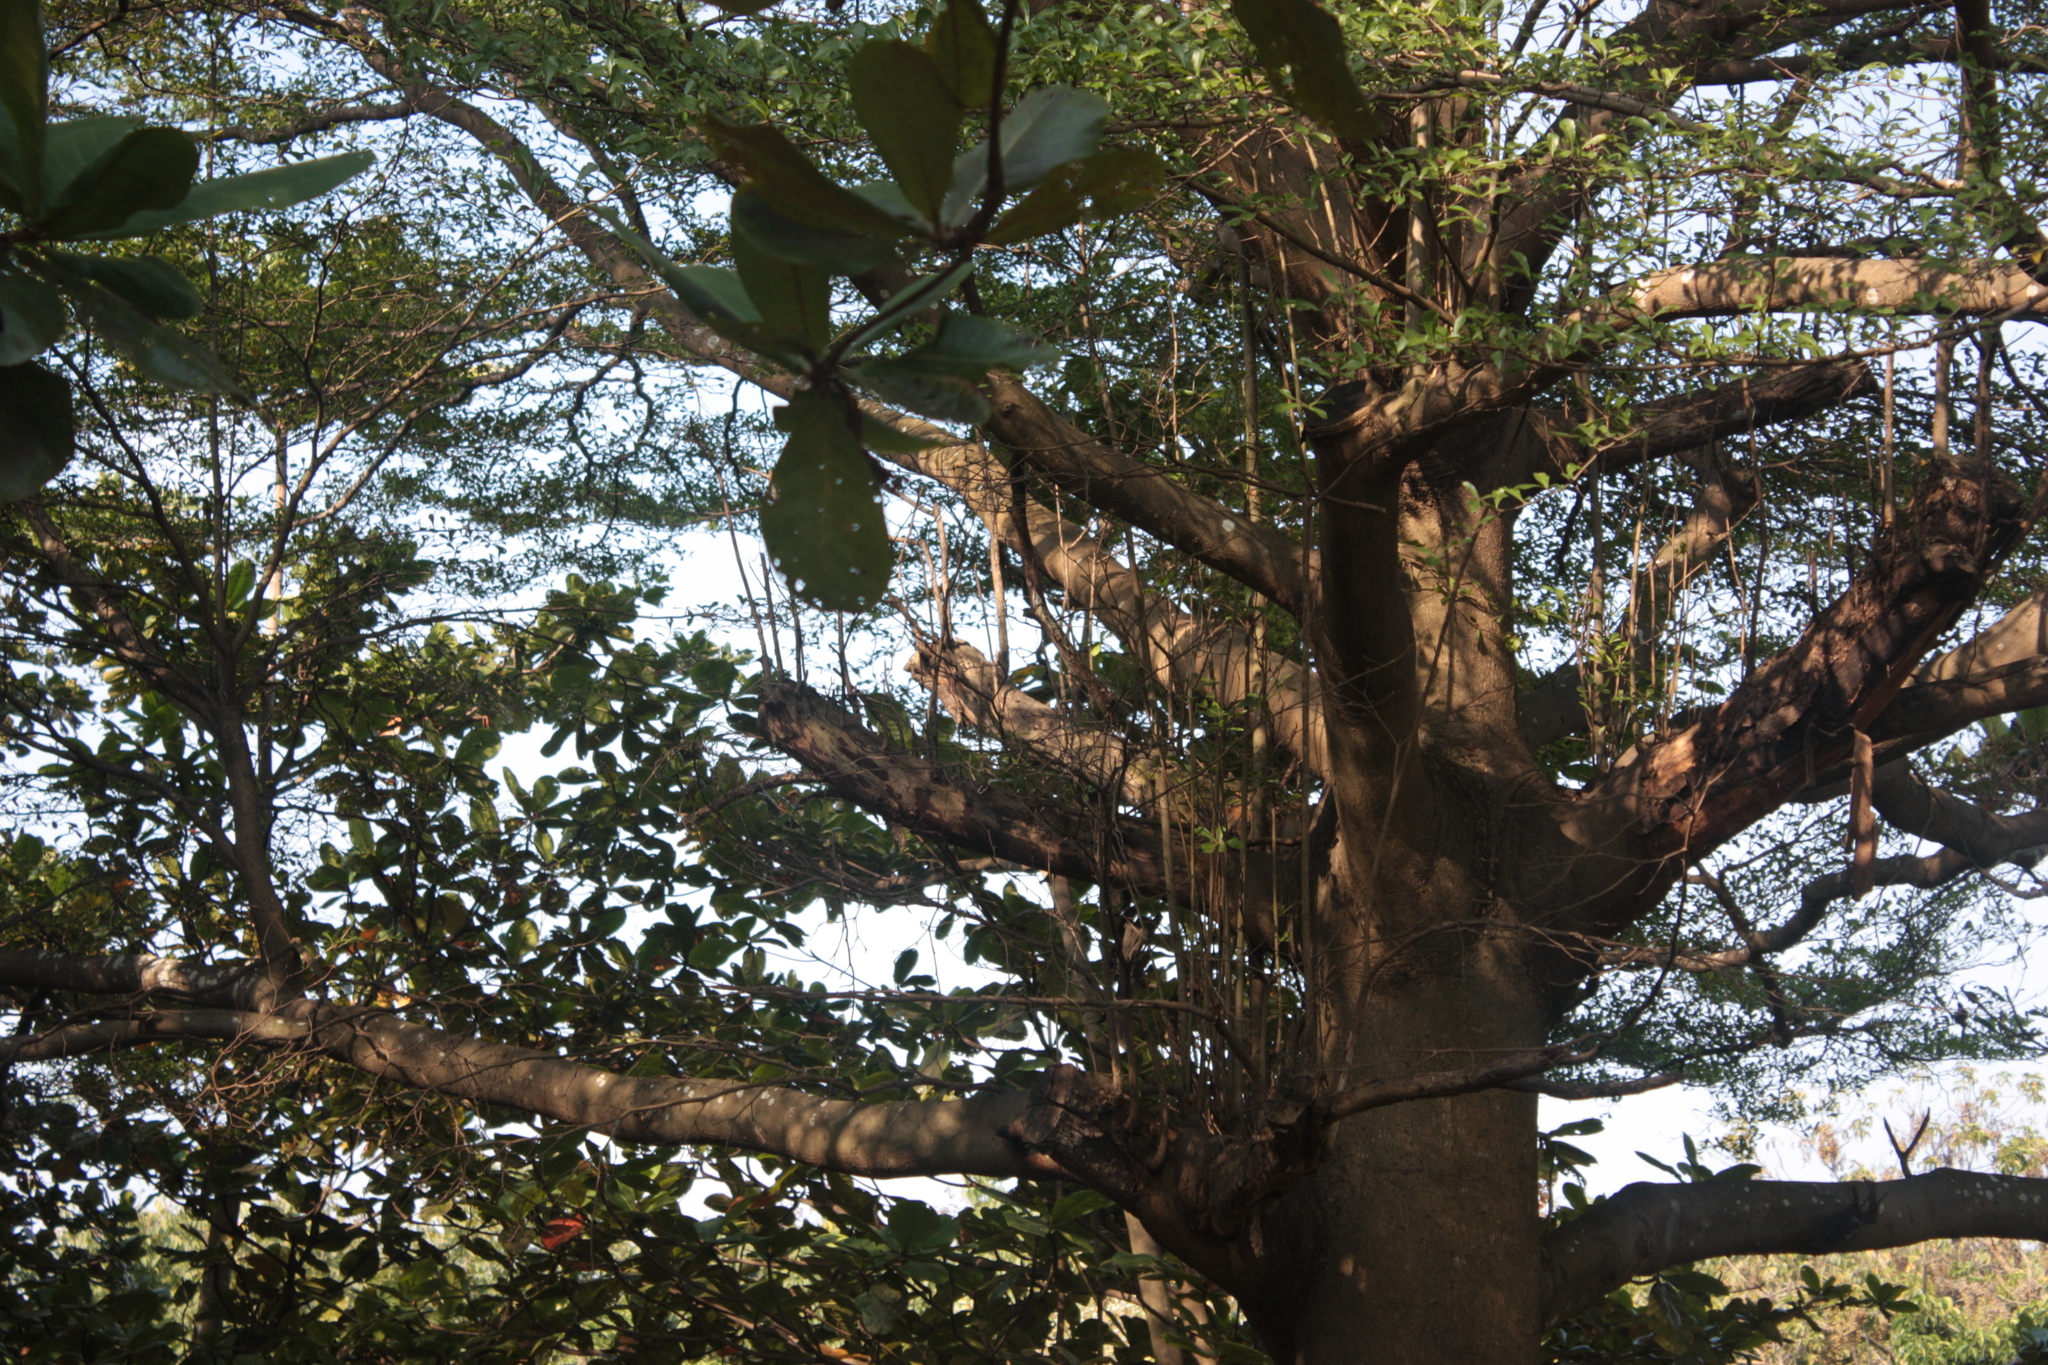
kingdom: Animalia
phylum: Chordata
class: Aves
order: Passeriformes
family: Oriolidae
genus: Oriolus
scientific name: Oriolus chinensis
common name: Black-naped oriole
